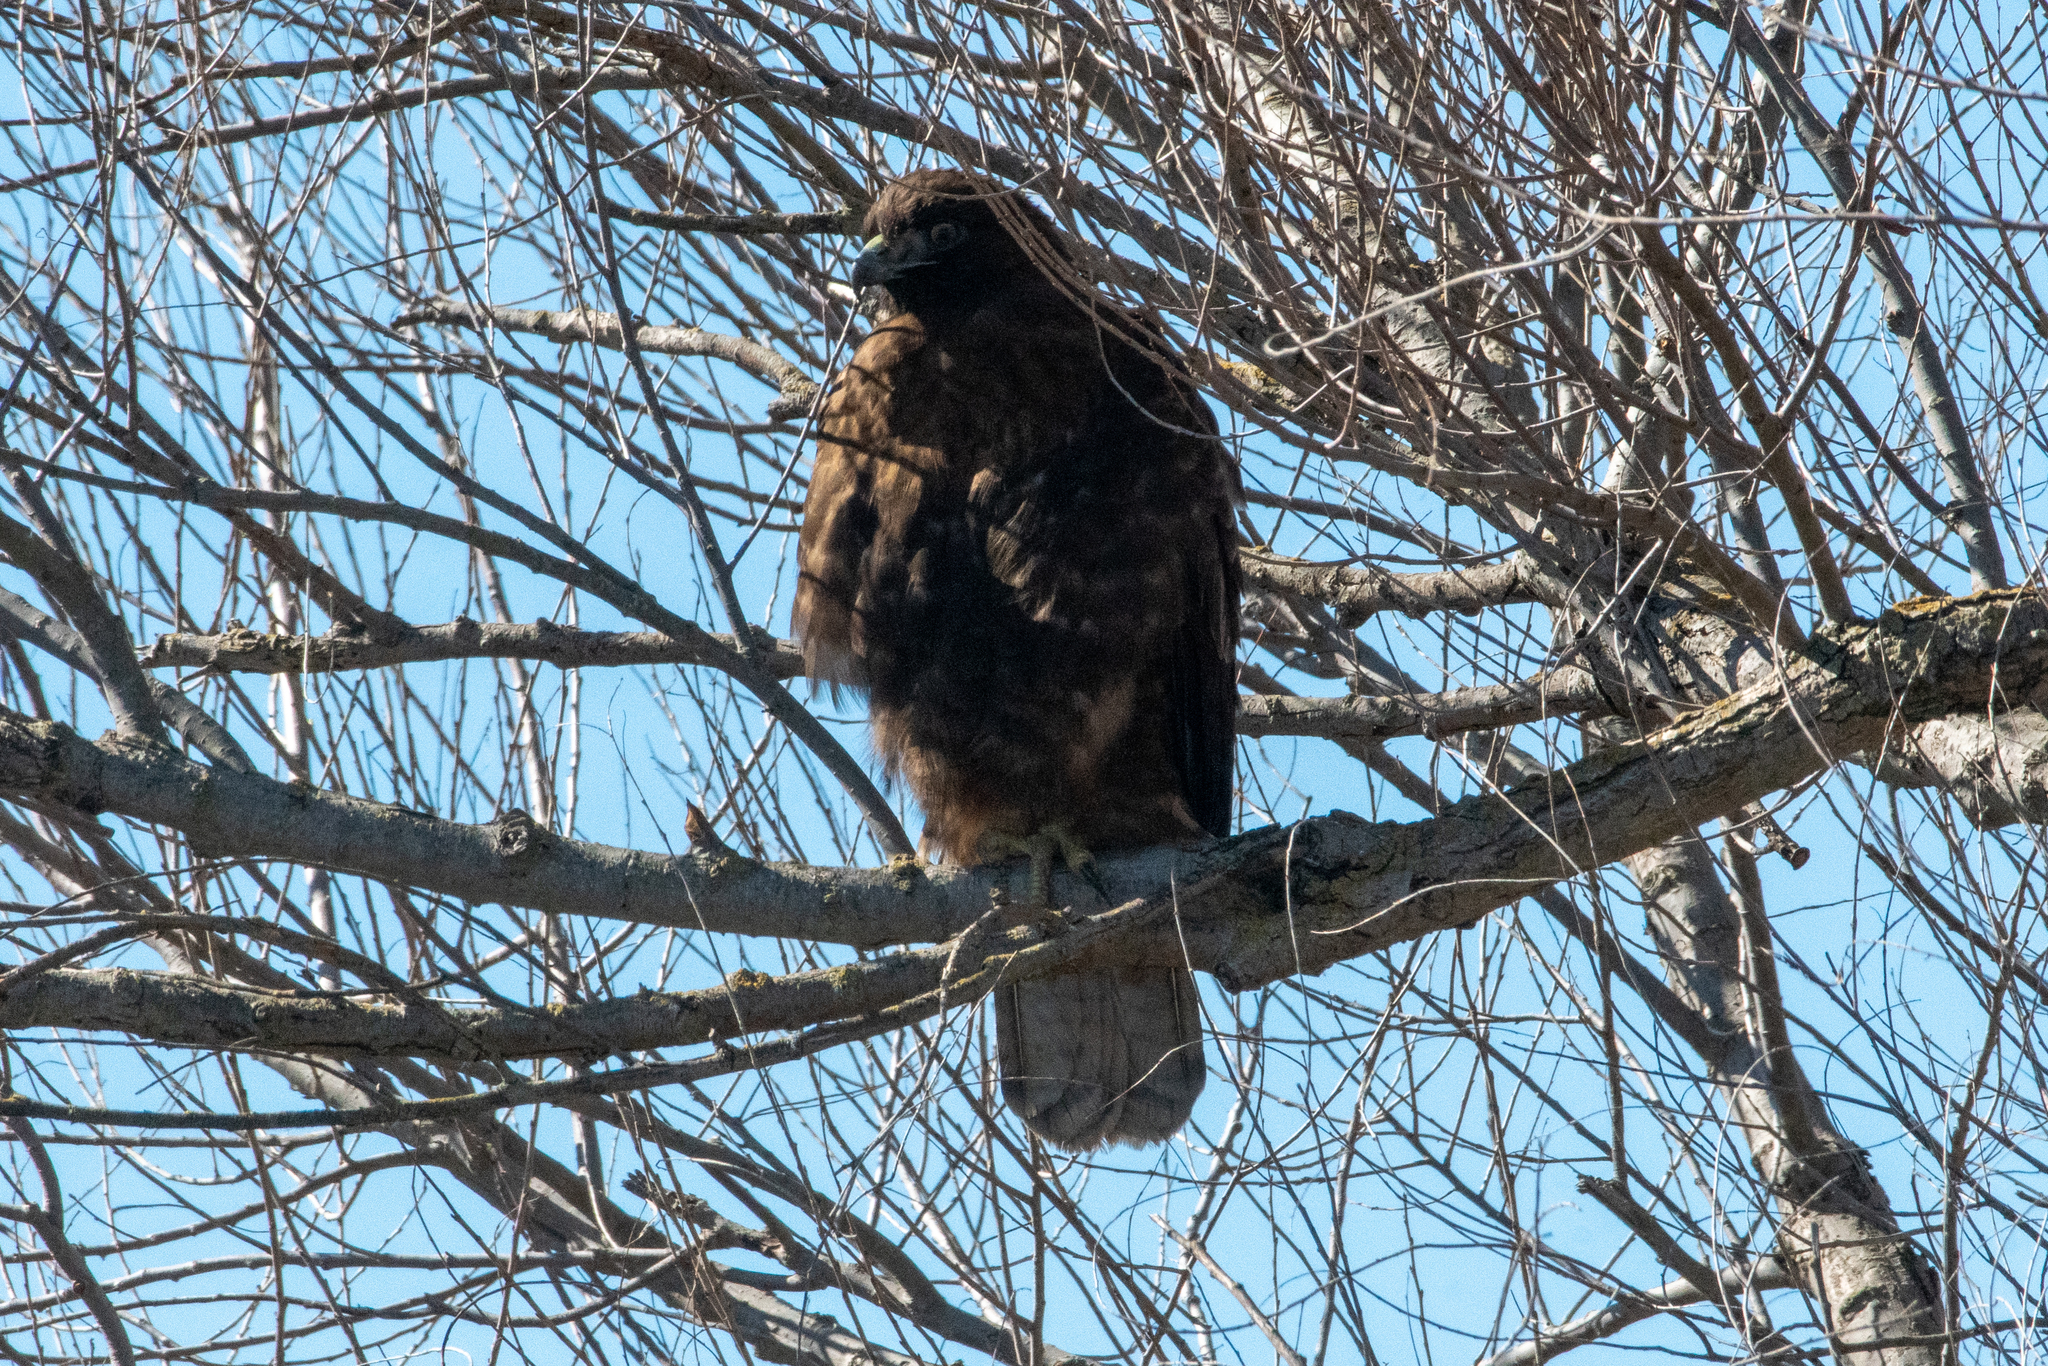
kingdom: Animalia
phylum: Chordata
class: Aves
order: Accipitriformes
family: Accipitridae
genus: Buteo
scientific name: Buteo jamaicensis
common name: Red-tailed hawk
